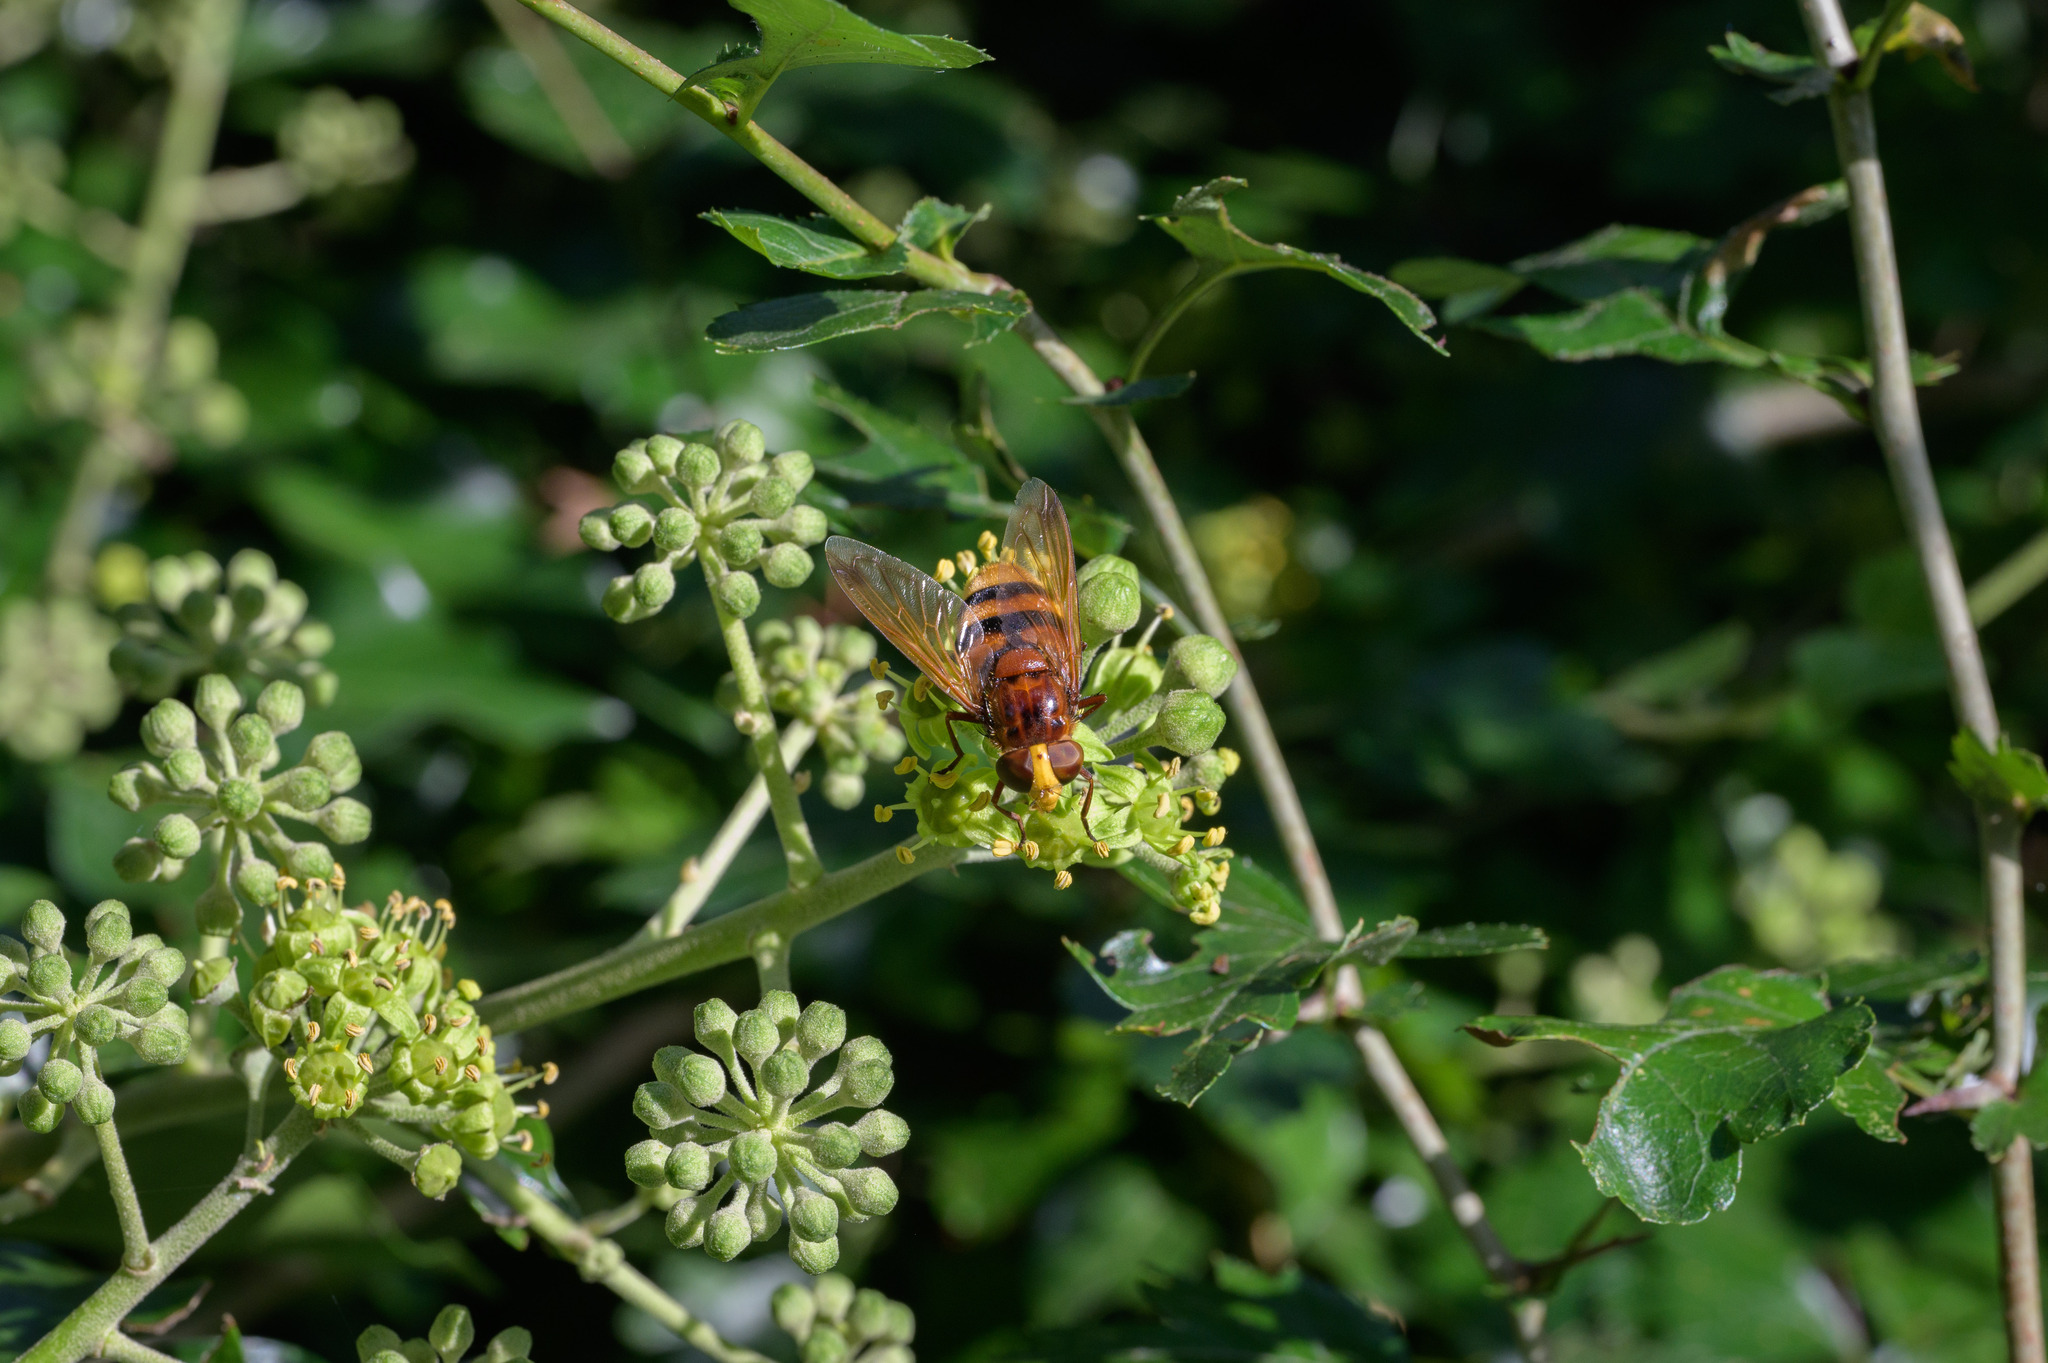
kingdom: Animalia
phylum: Arthropoda
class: Insecta
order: Diptera
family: Syrphidae
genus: Volucella
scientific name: Volucella zonaria
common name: Hornet hoverfly
